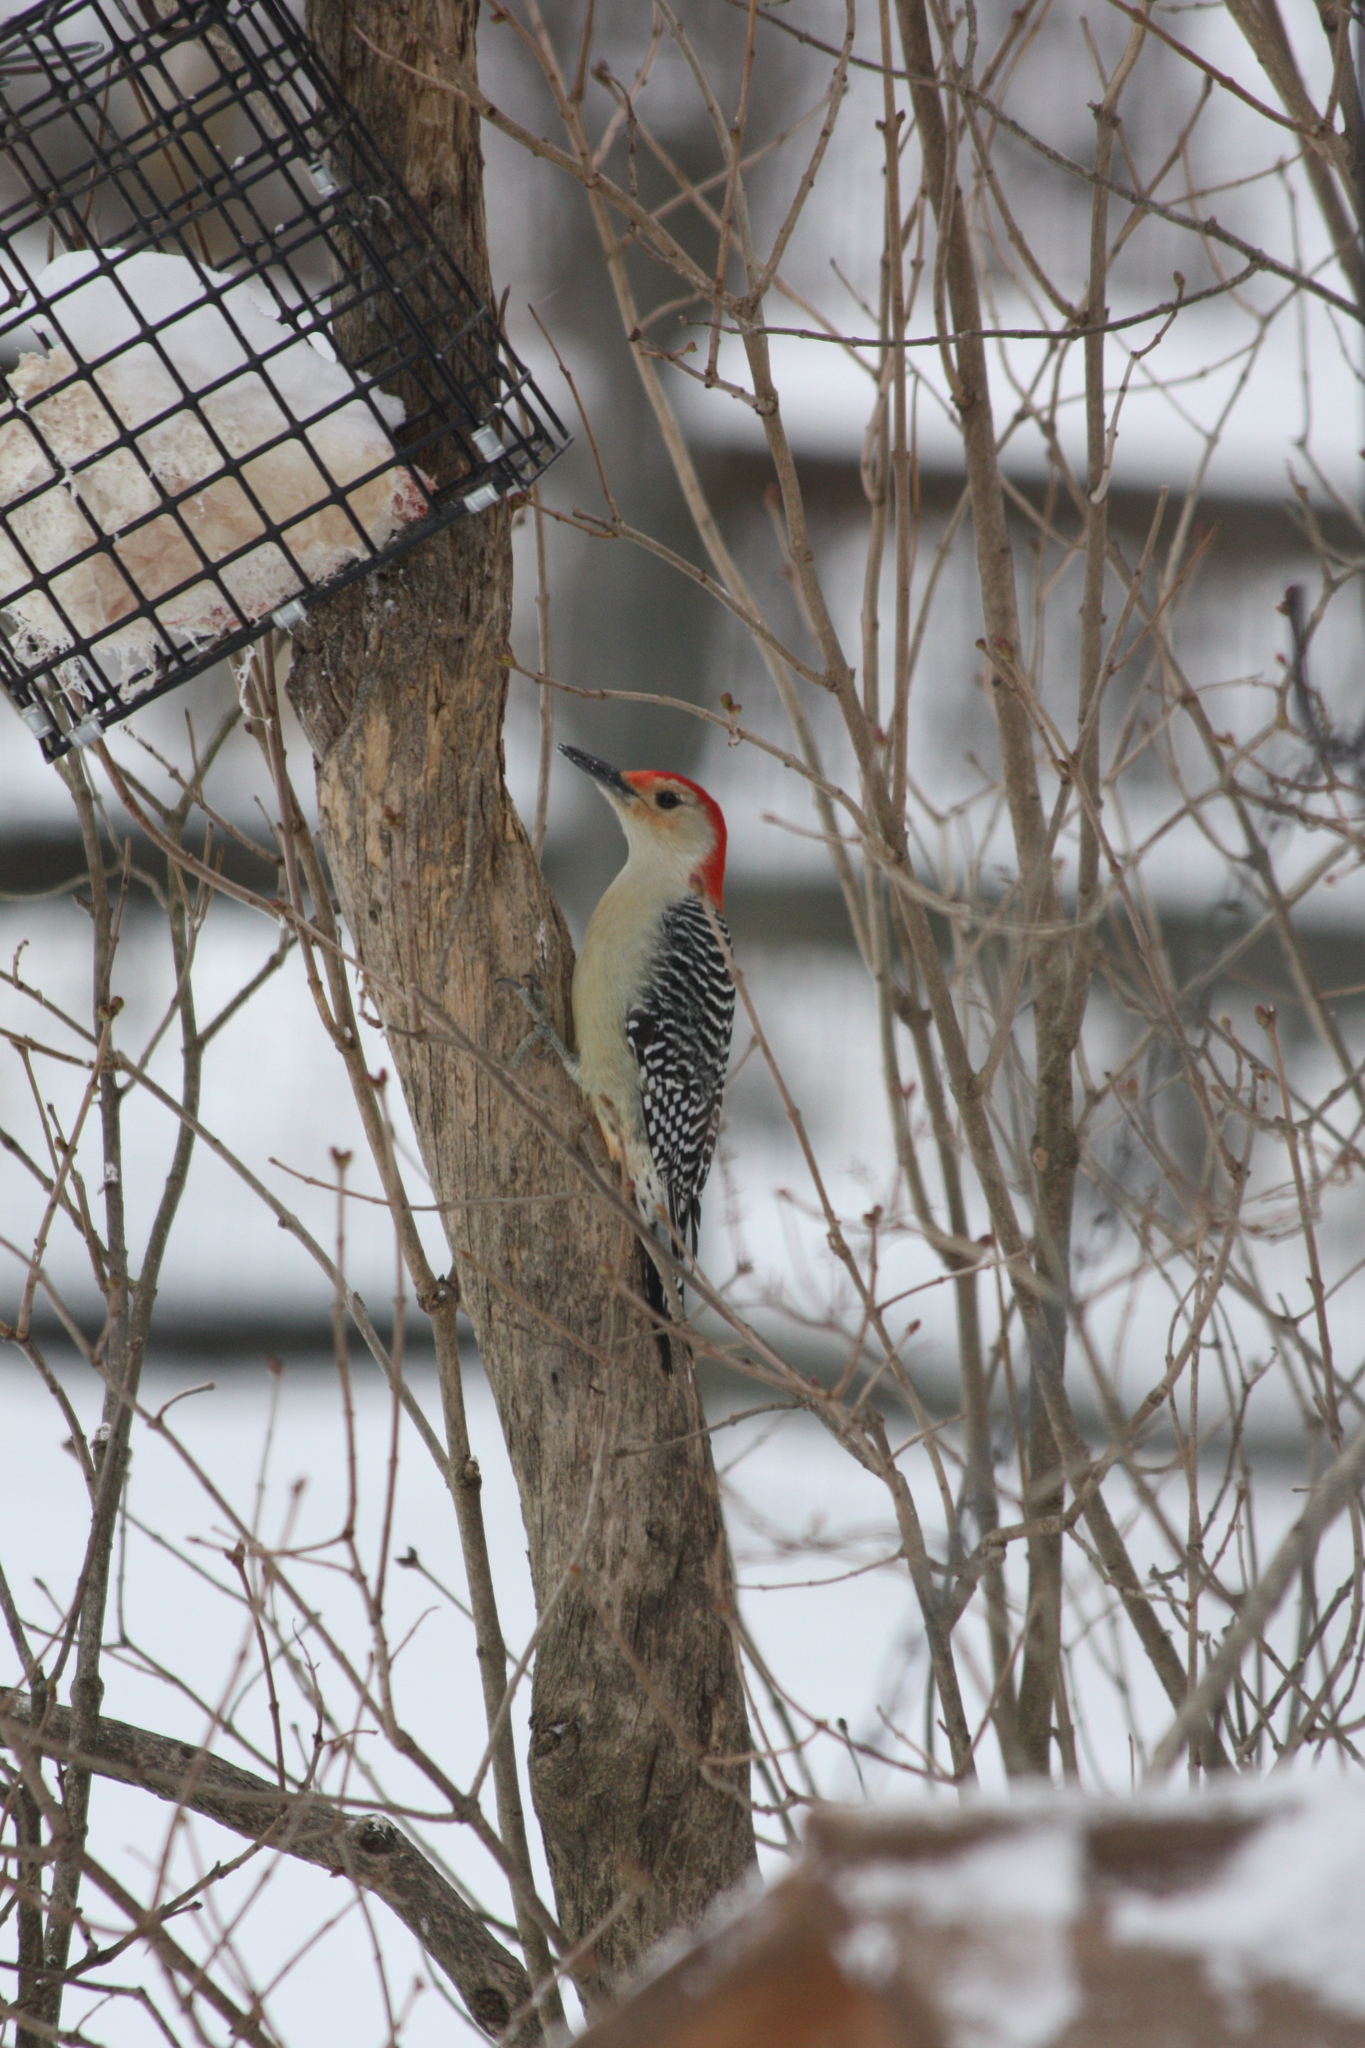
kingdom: Animalia
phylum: Chordata
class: Aves
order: Piciformes
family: Picidae
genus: Melanerpes
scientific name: Melanerpes carolinus
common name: Red-bellied woodpecker
